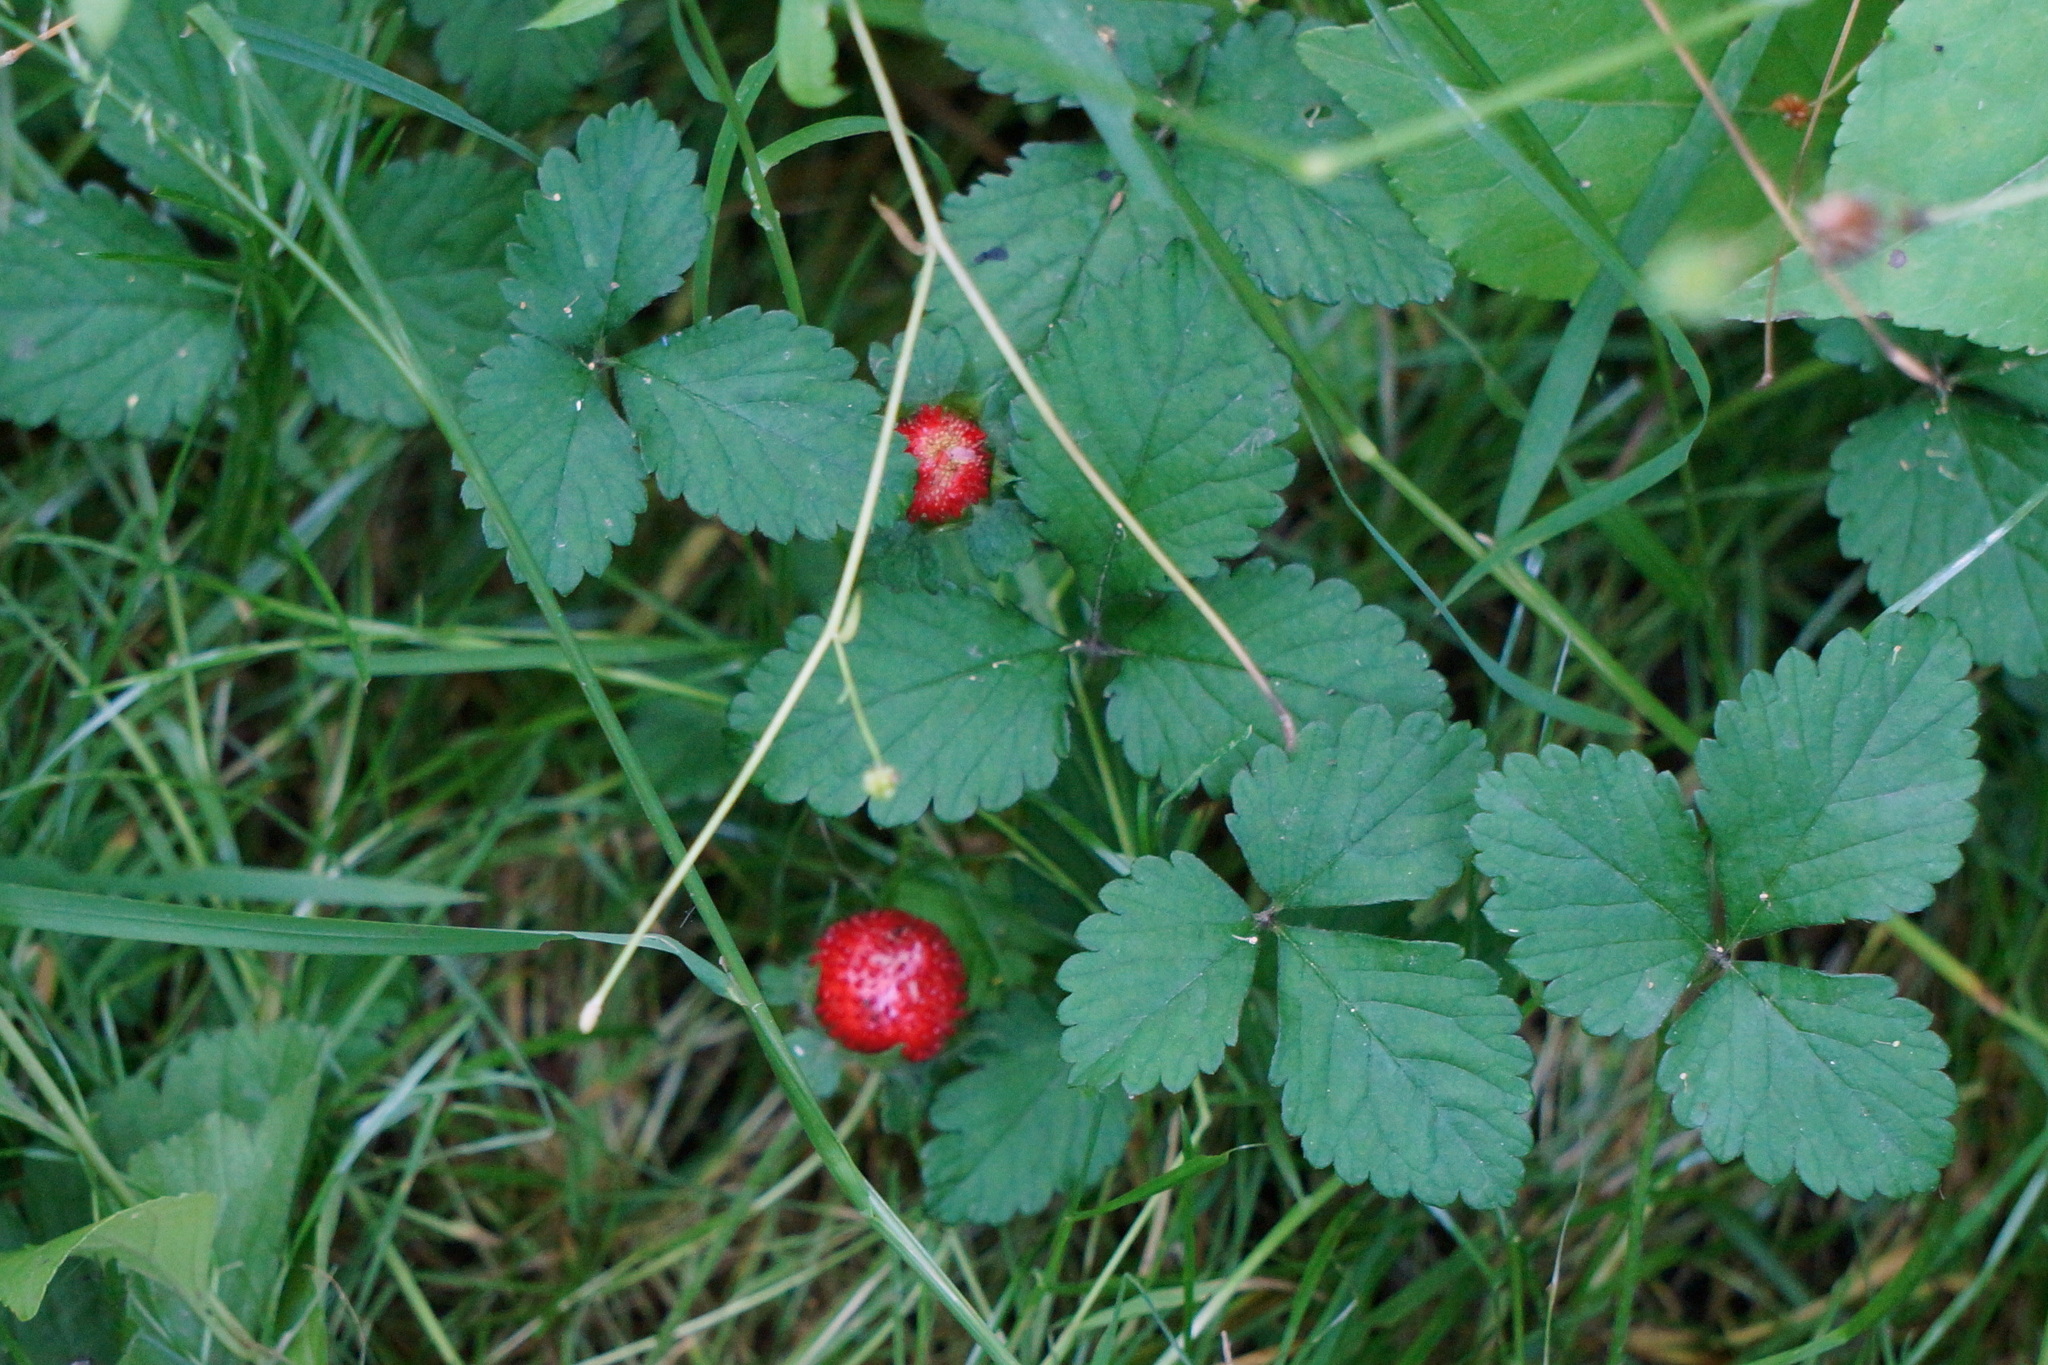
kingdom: Plantae
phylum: Tracheophyta
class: Magnoliopsida
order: Rosales
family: Rosaceae
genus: Potentilla
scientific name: Potentilla indica
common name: Yellow-flowered strawberry
